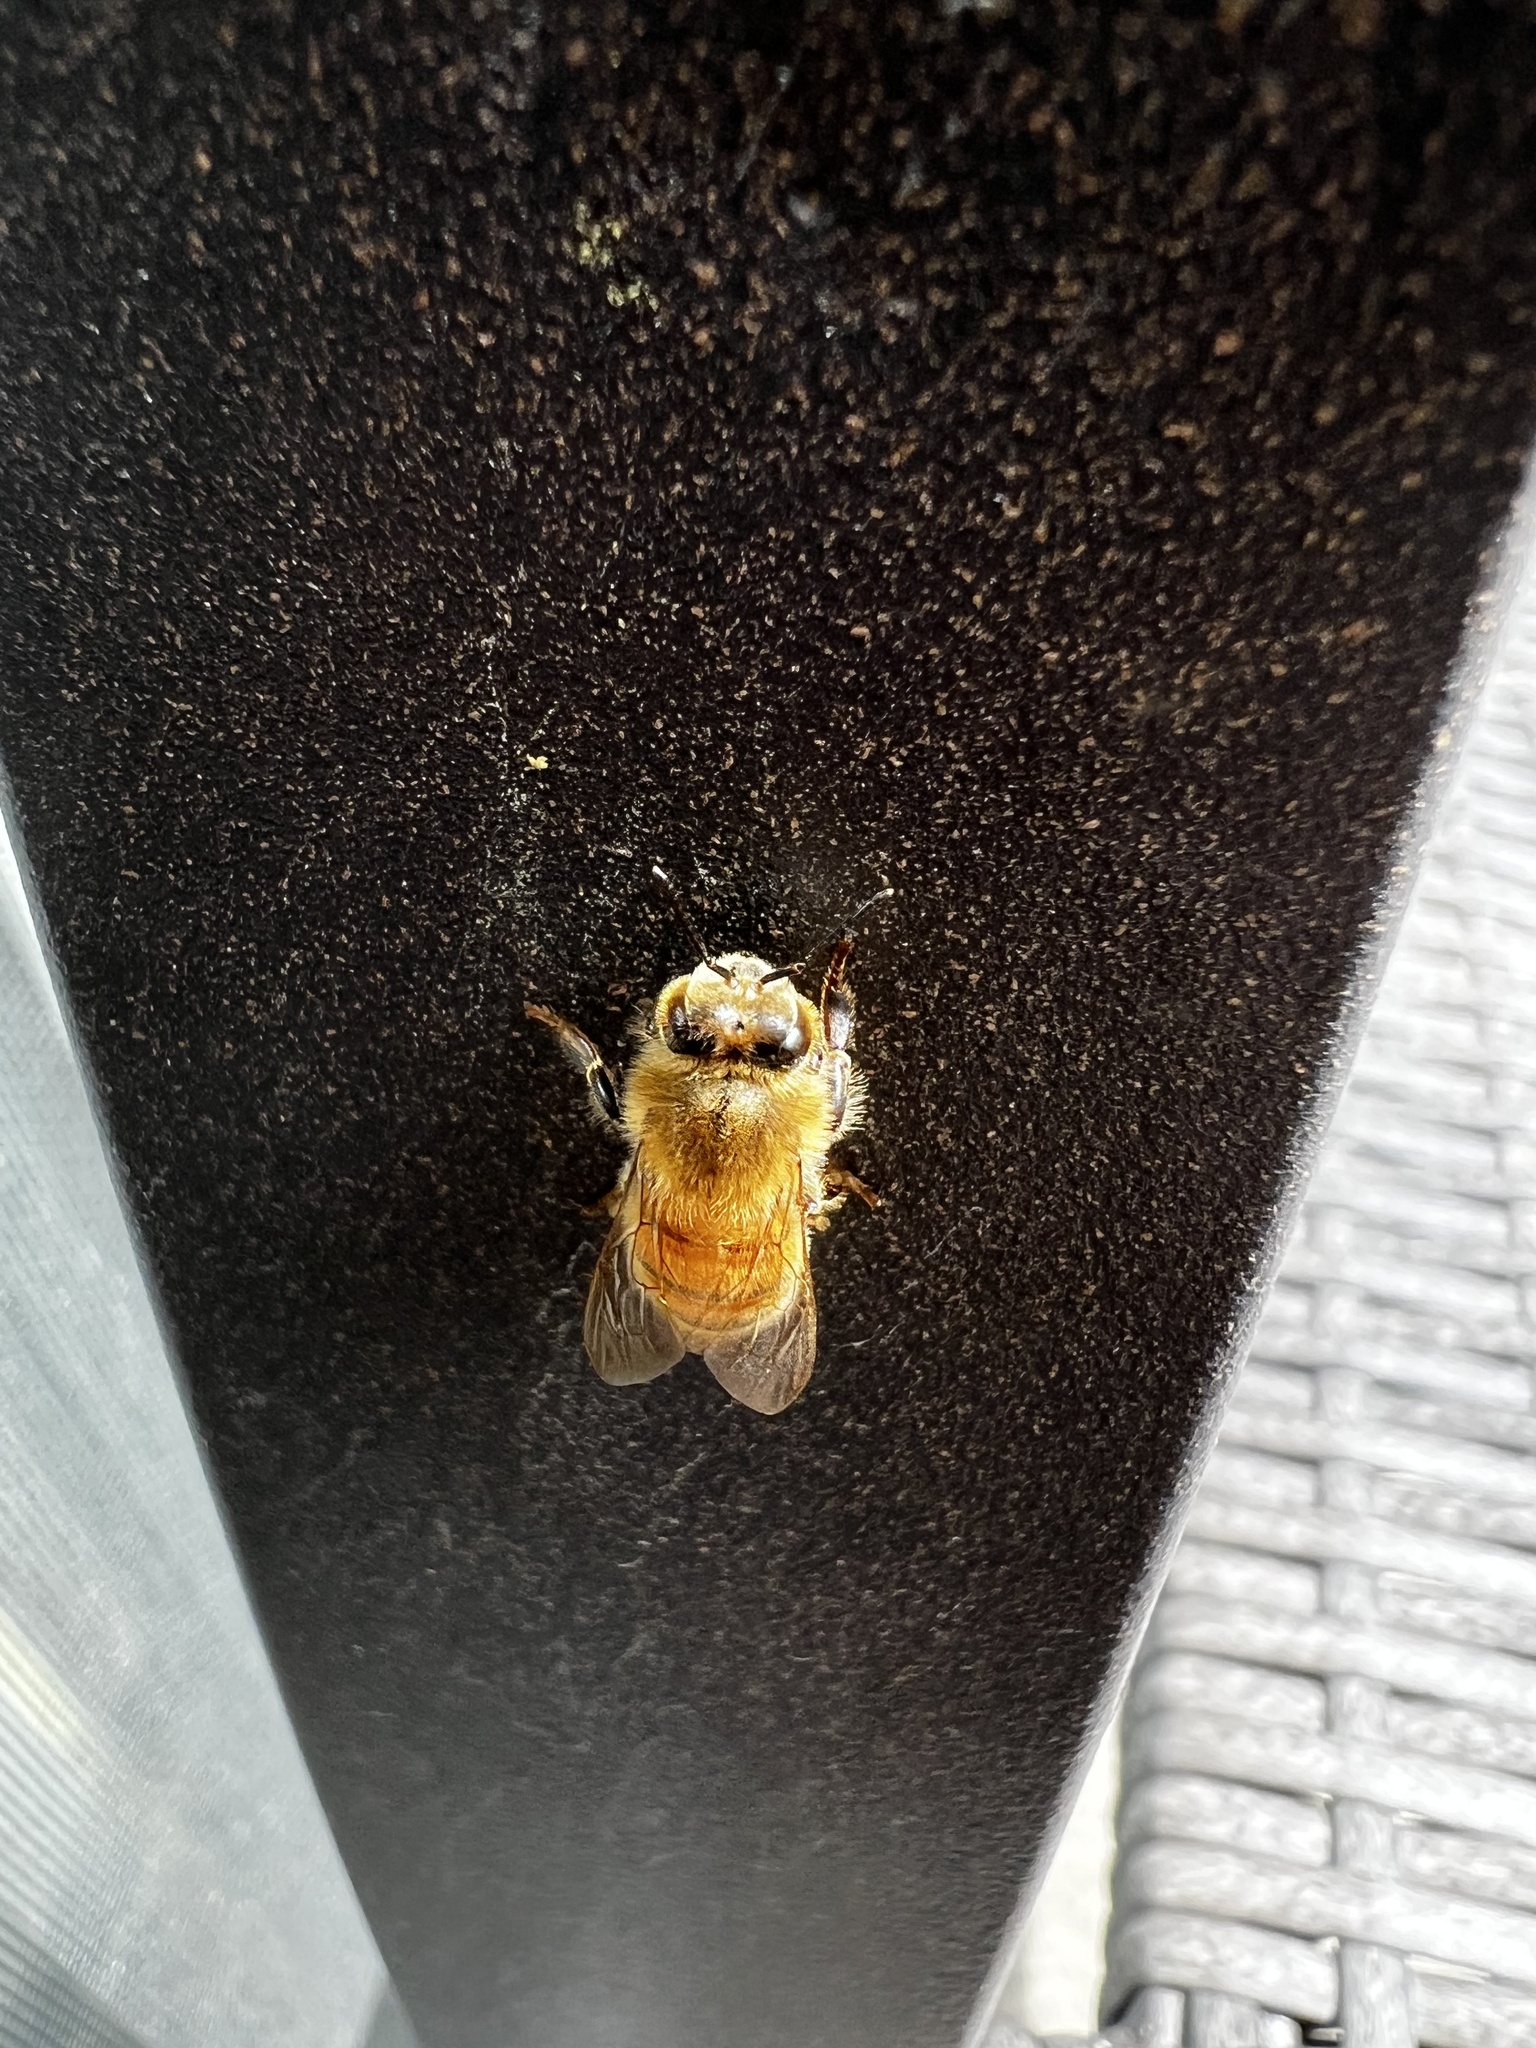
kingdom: Animalia
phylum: Arthropoda
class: Insecta
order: Hymenoptera
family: Apidae
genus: Apis
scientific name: Apis mellifera
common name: Honey bee
